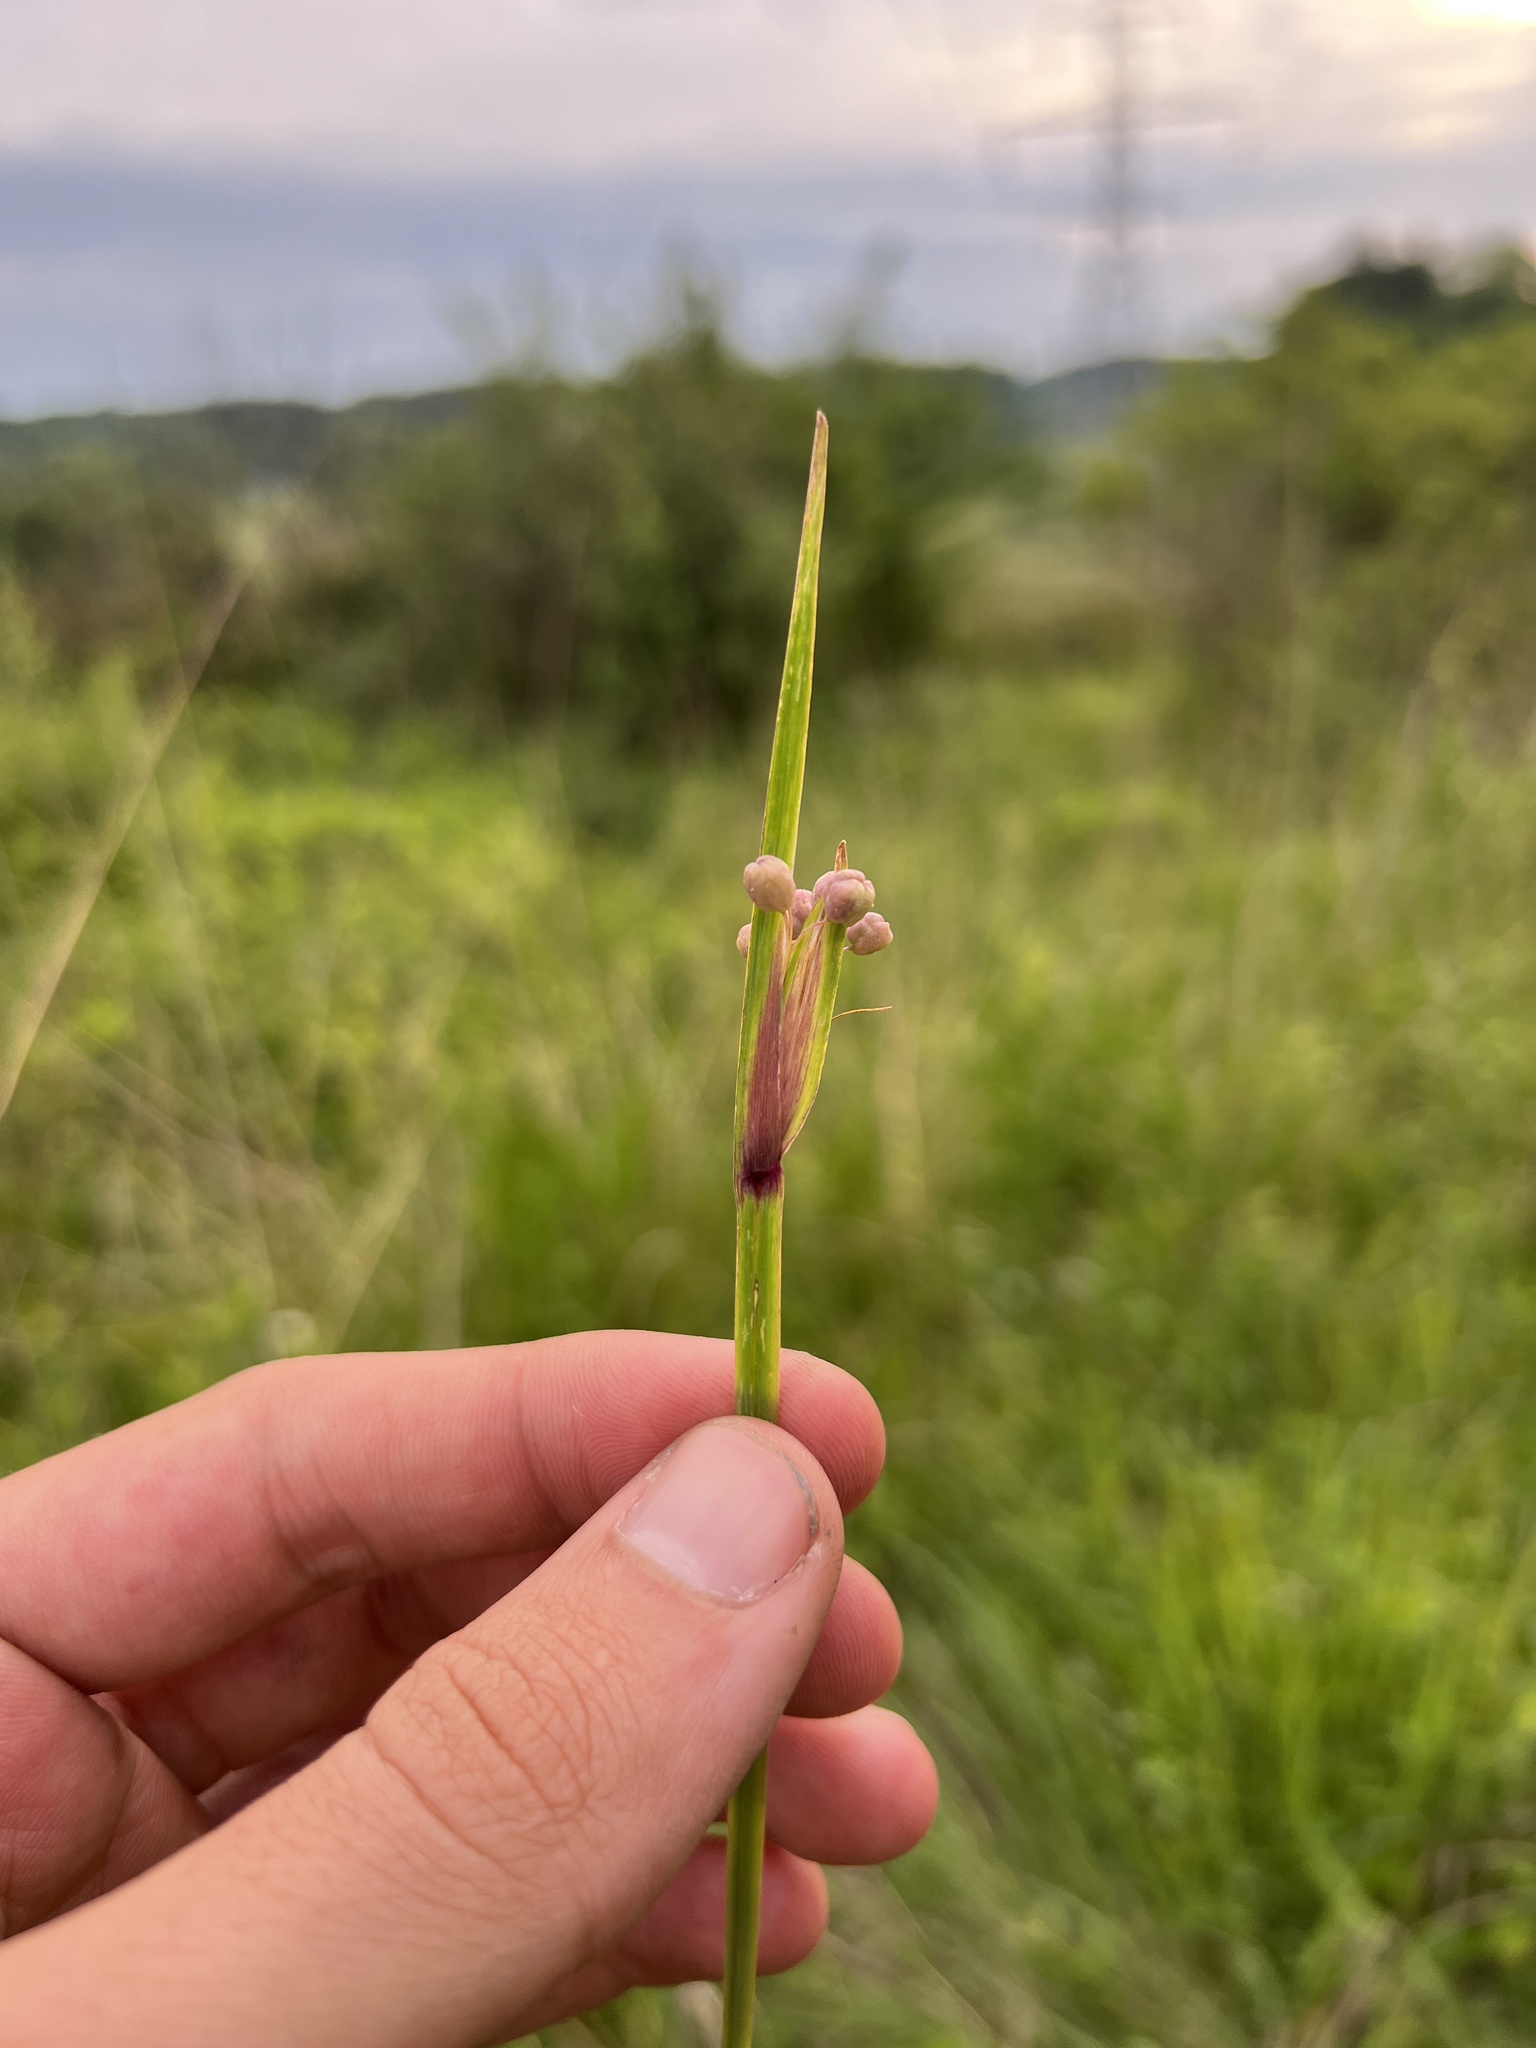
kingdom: Plantae
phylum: Tracheophyta
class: Liliopsida
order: Asparagales
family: Iridaceae
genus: Sisyrinchium
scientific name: Sisyrinchium albidum
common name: Pale blue-eyed-grass
